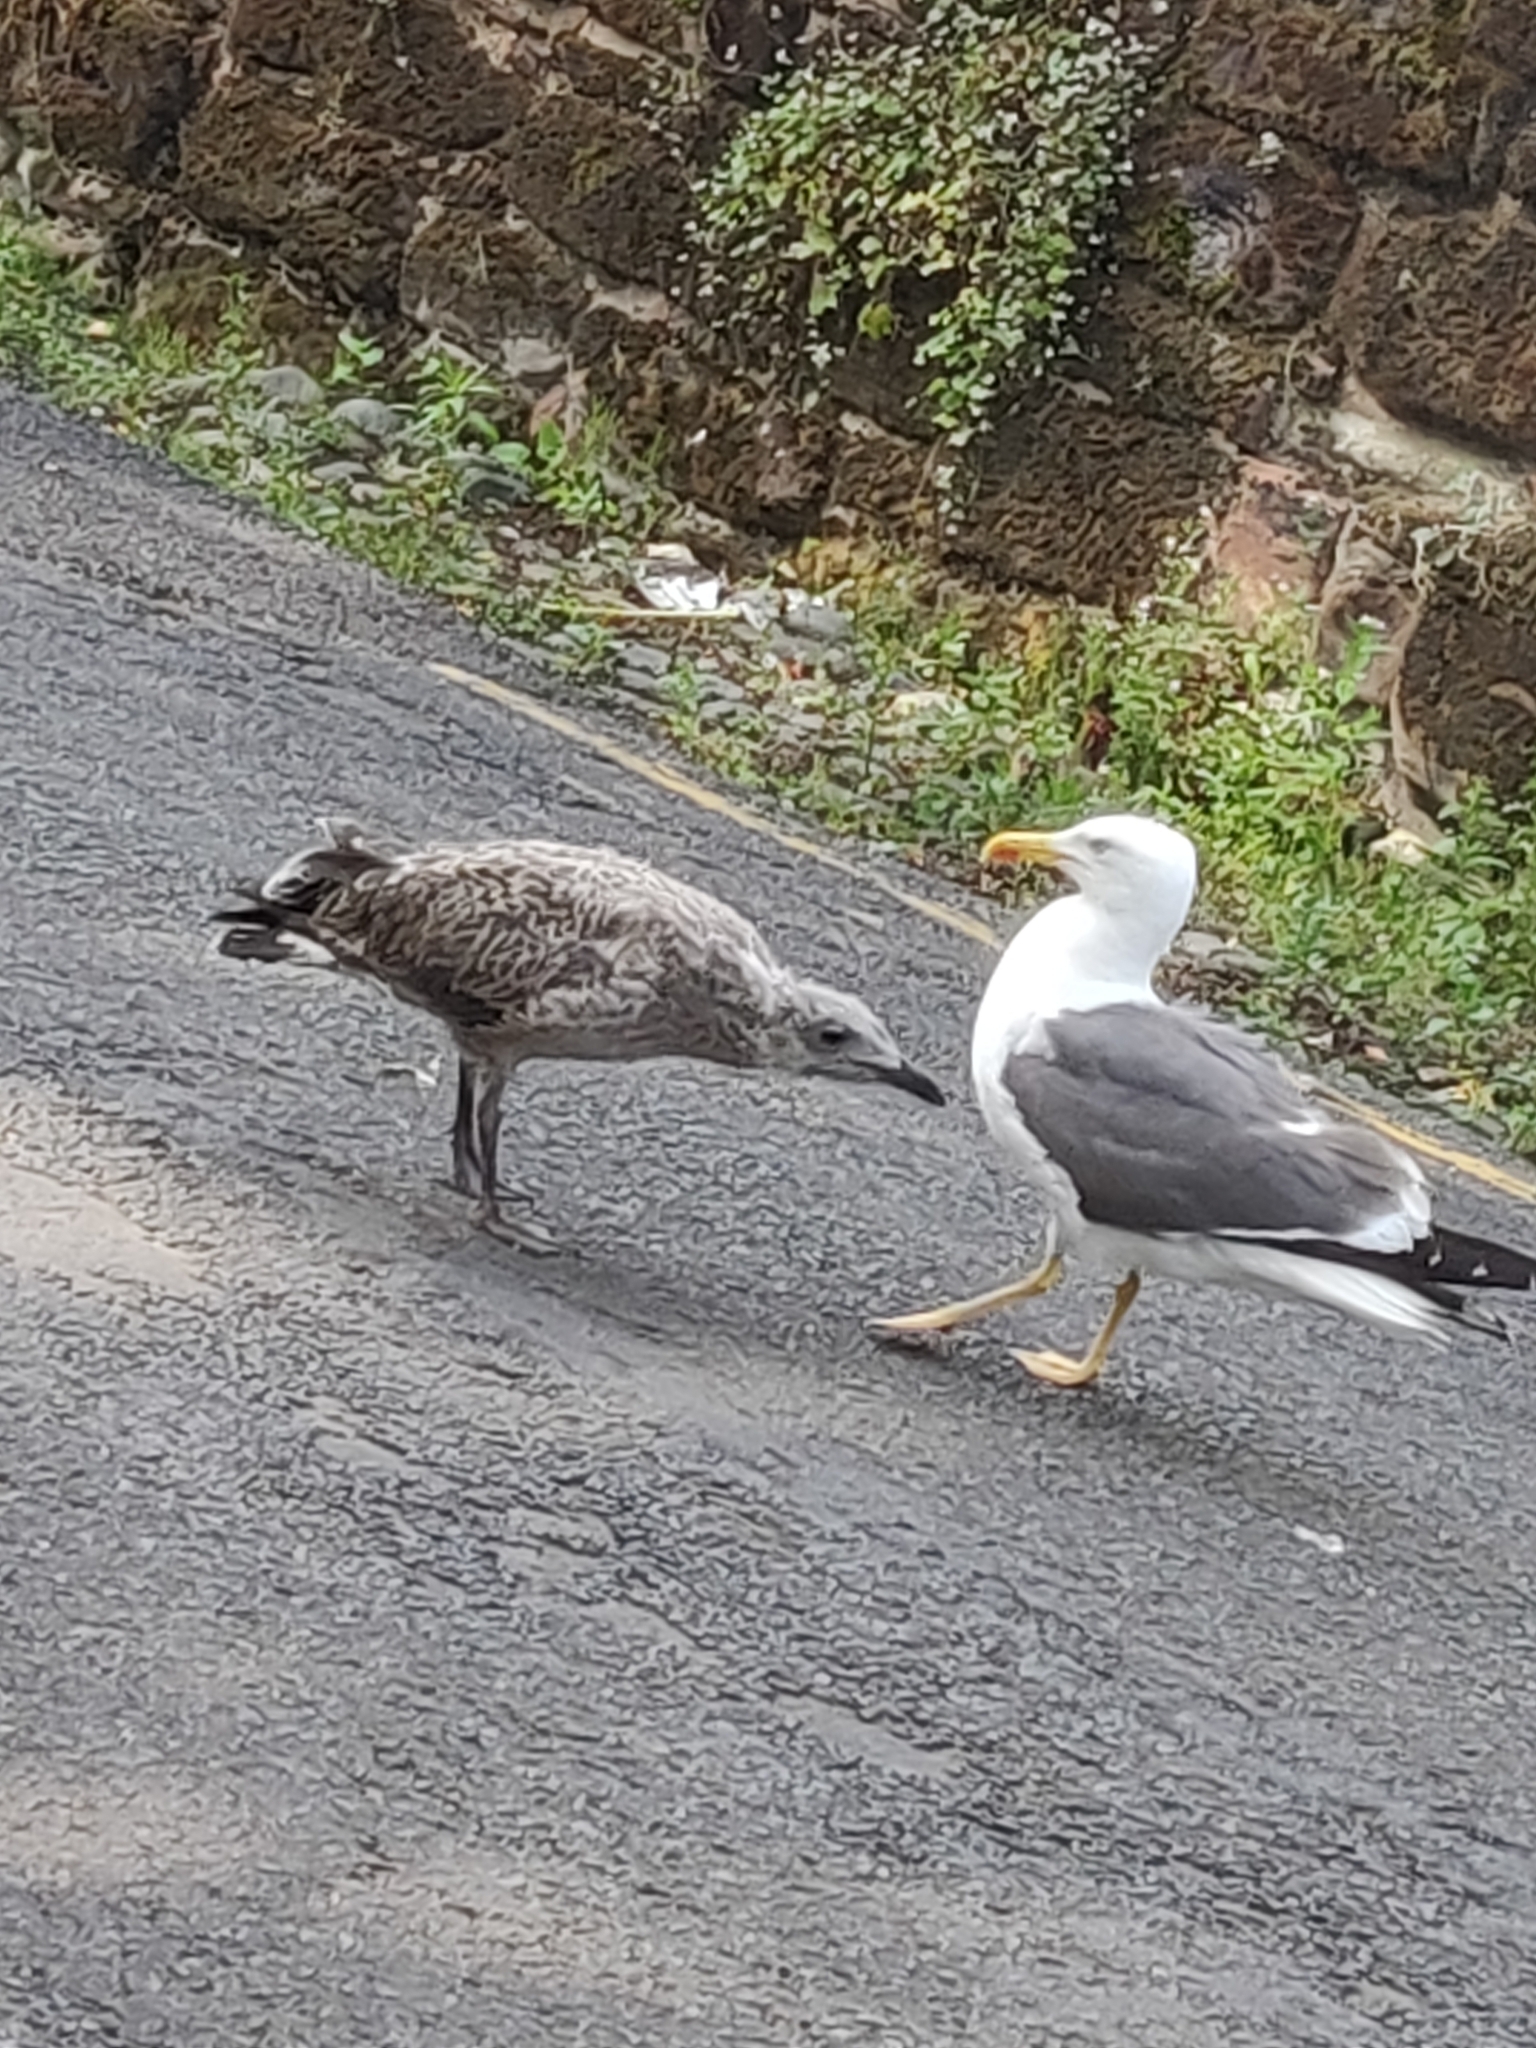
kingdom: Animalia
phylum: Chordata
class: Aves
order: Charadriiformes
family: Laridae
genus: Larus
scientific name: Larus fuscus
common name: Lesser black-backed gull
